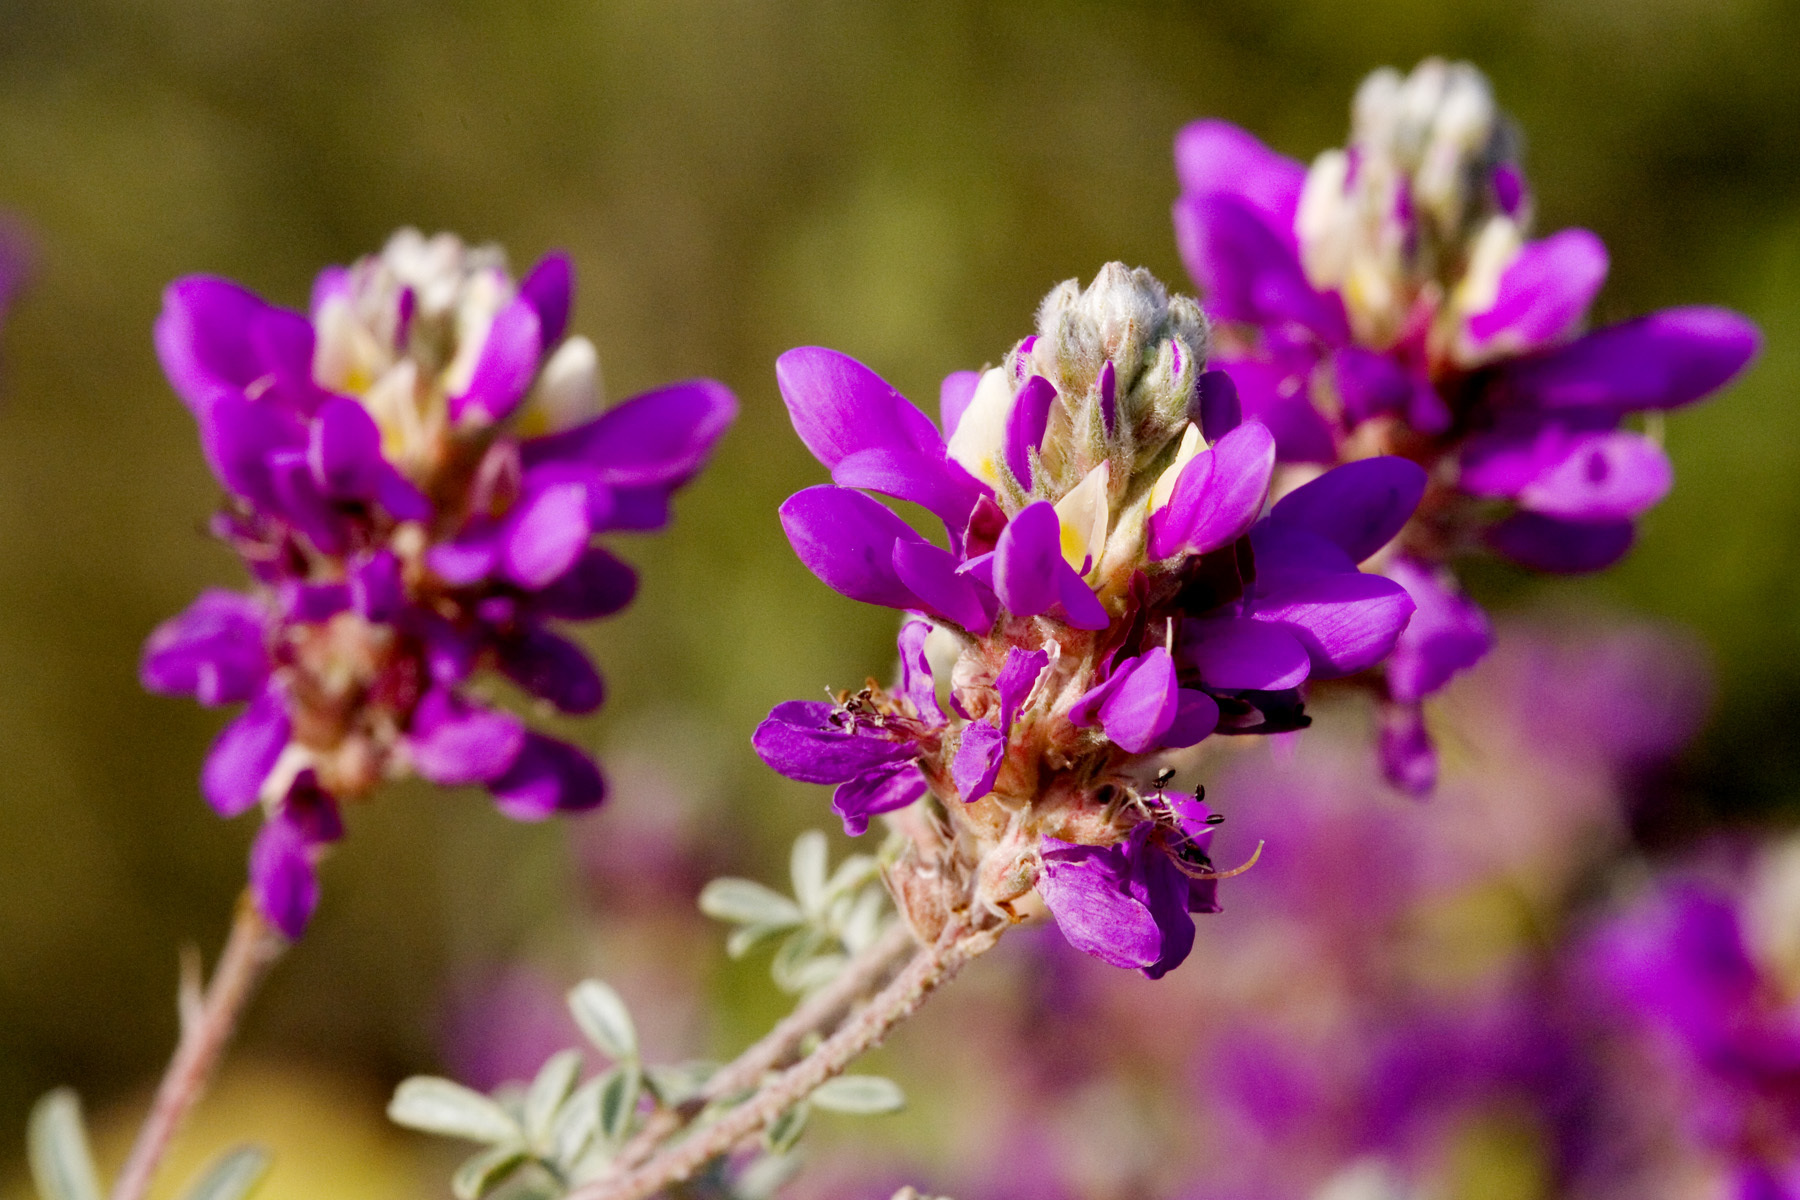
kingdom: Plantae
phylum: Tracheophyta
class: Magnoliopsida
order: Fabales
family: Fabaceae
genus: Dalea
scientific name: Dalea bicolor
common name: Silver prairie-clover
